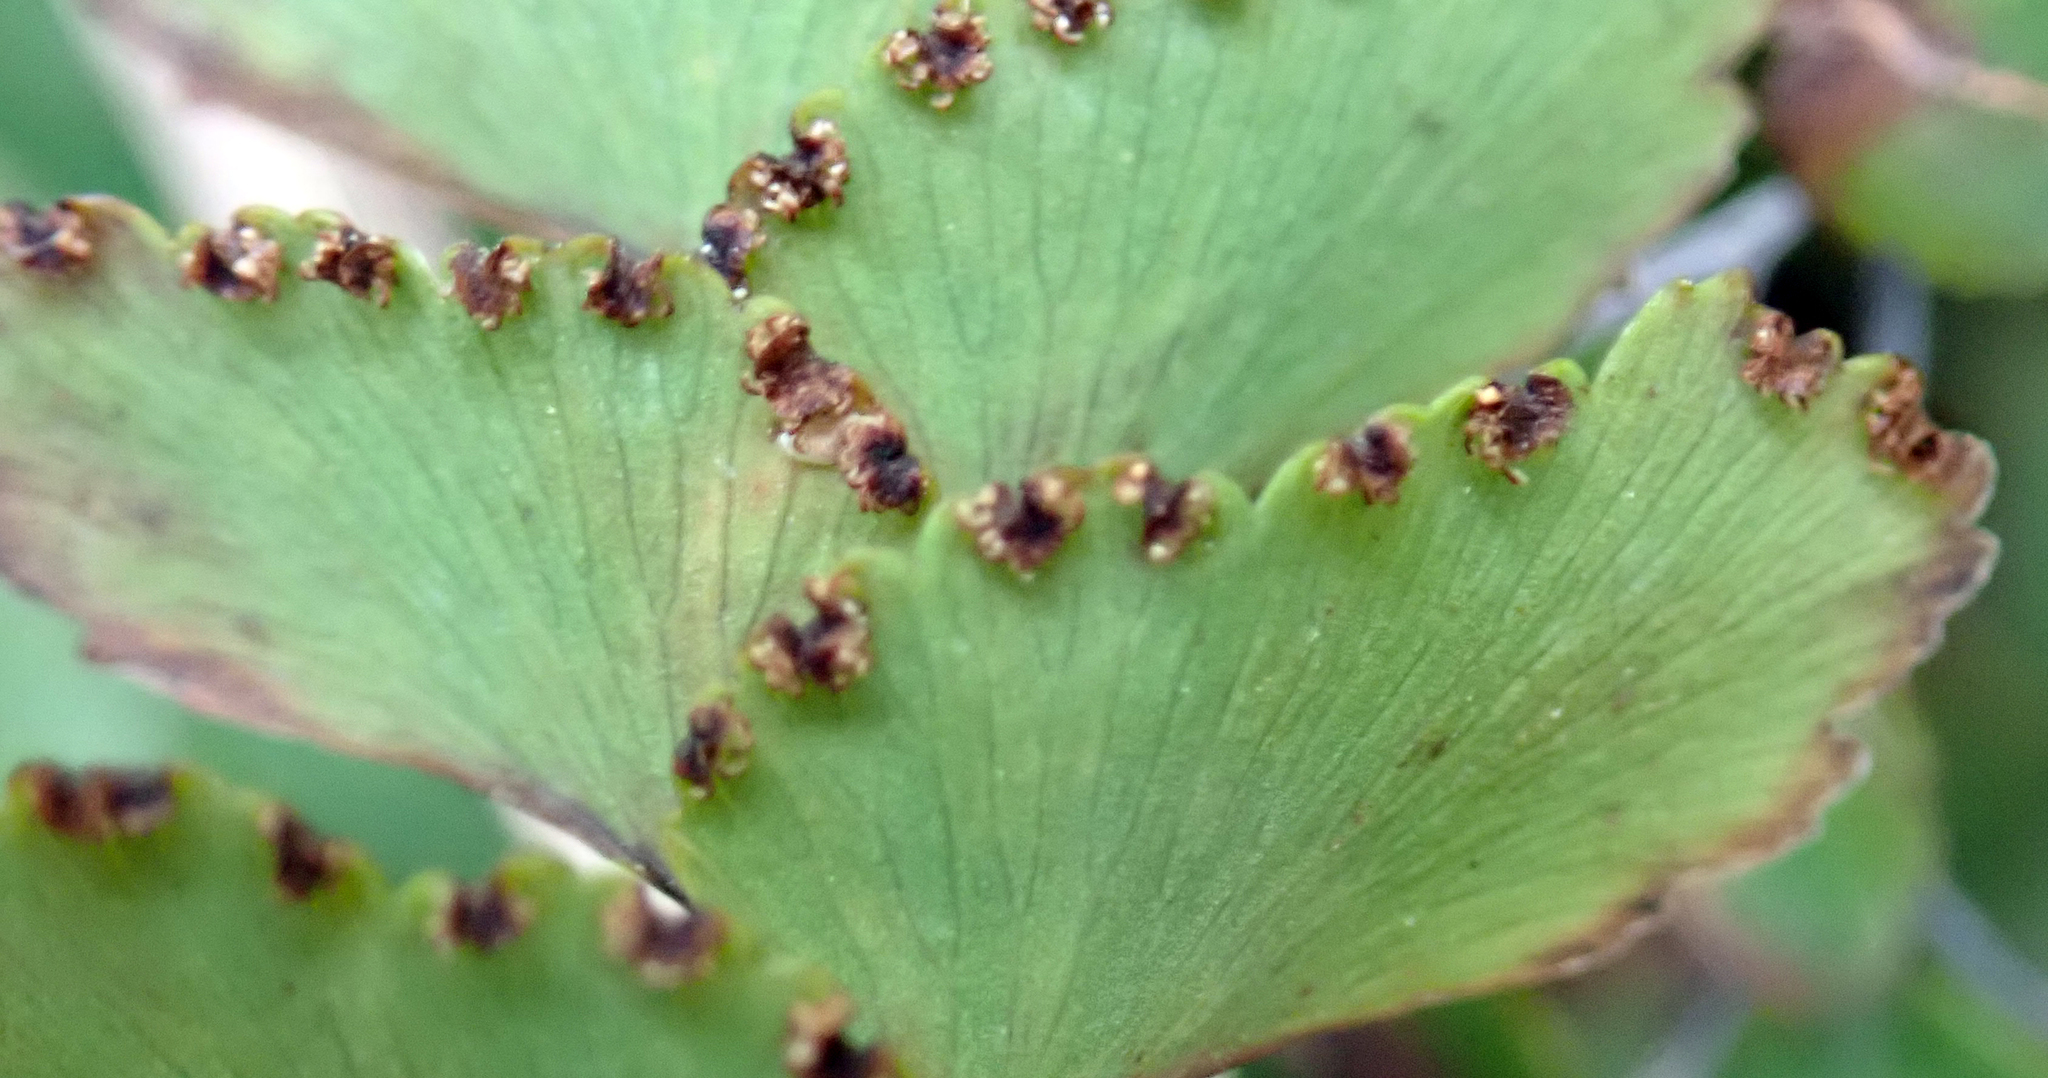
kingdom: Plantae
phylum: Tracheophyta
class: Polypodiopsida
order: Polypodiales
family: Pteridaceae
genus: Adiantum
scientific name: Adiantum cunninghamii
